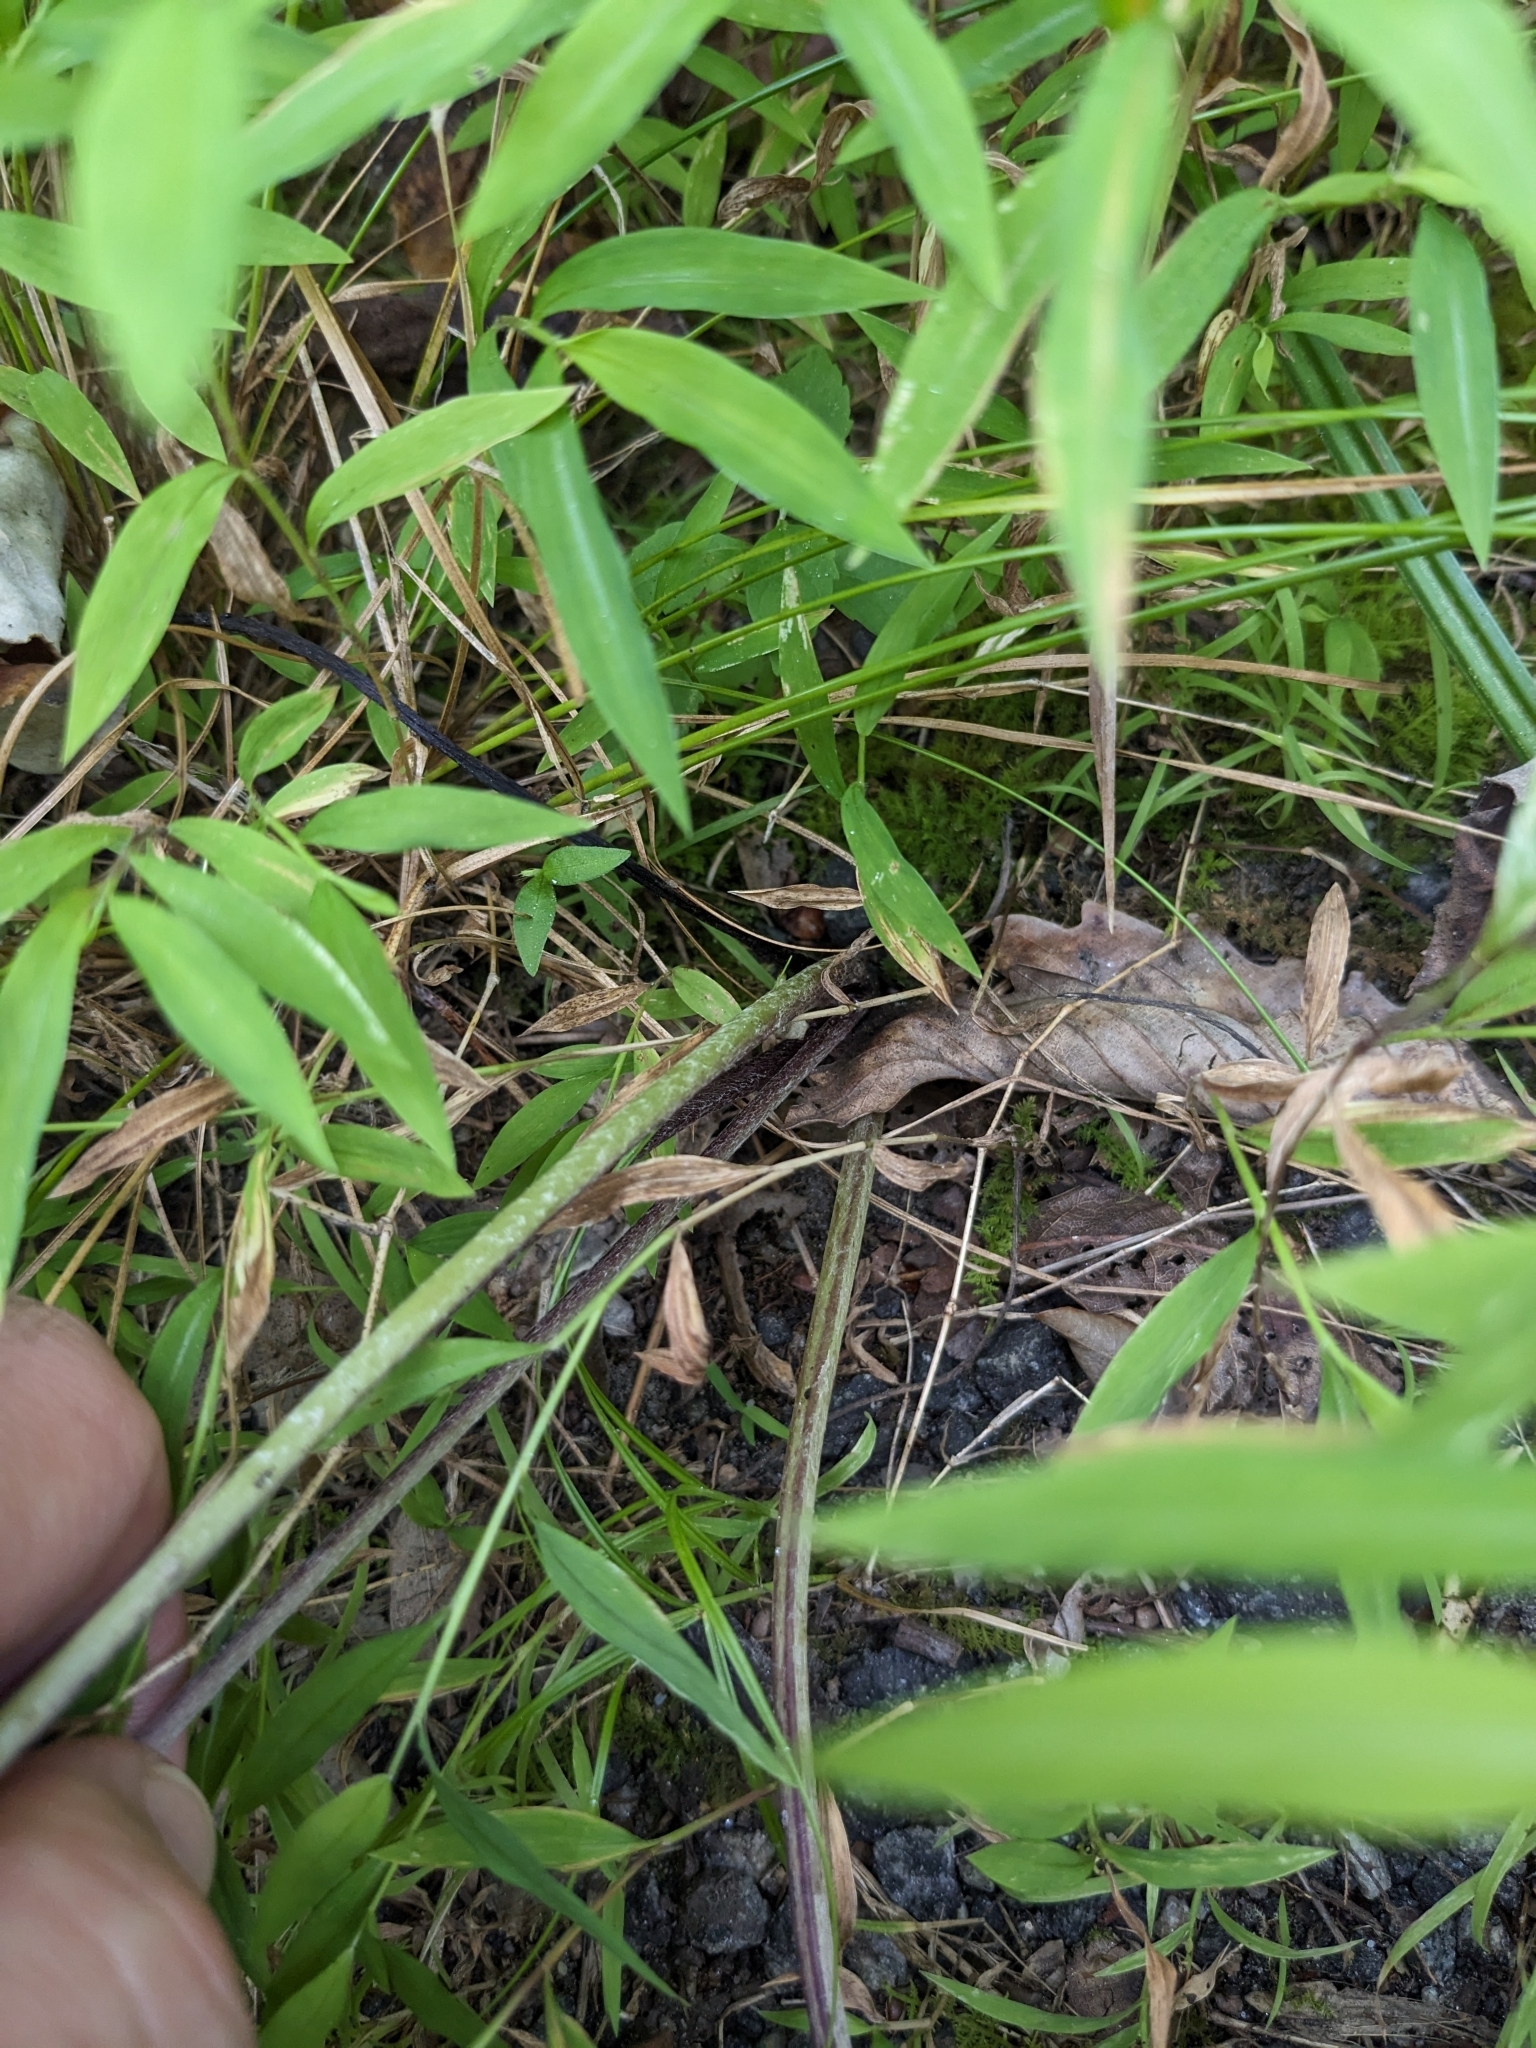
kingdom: Plantae
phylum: Tracheophyta
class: Magnoliopsida
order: Asterales
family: Asteraceae
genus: Tussilago
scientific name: Tussilago farfara
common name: Coltsfoot
